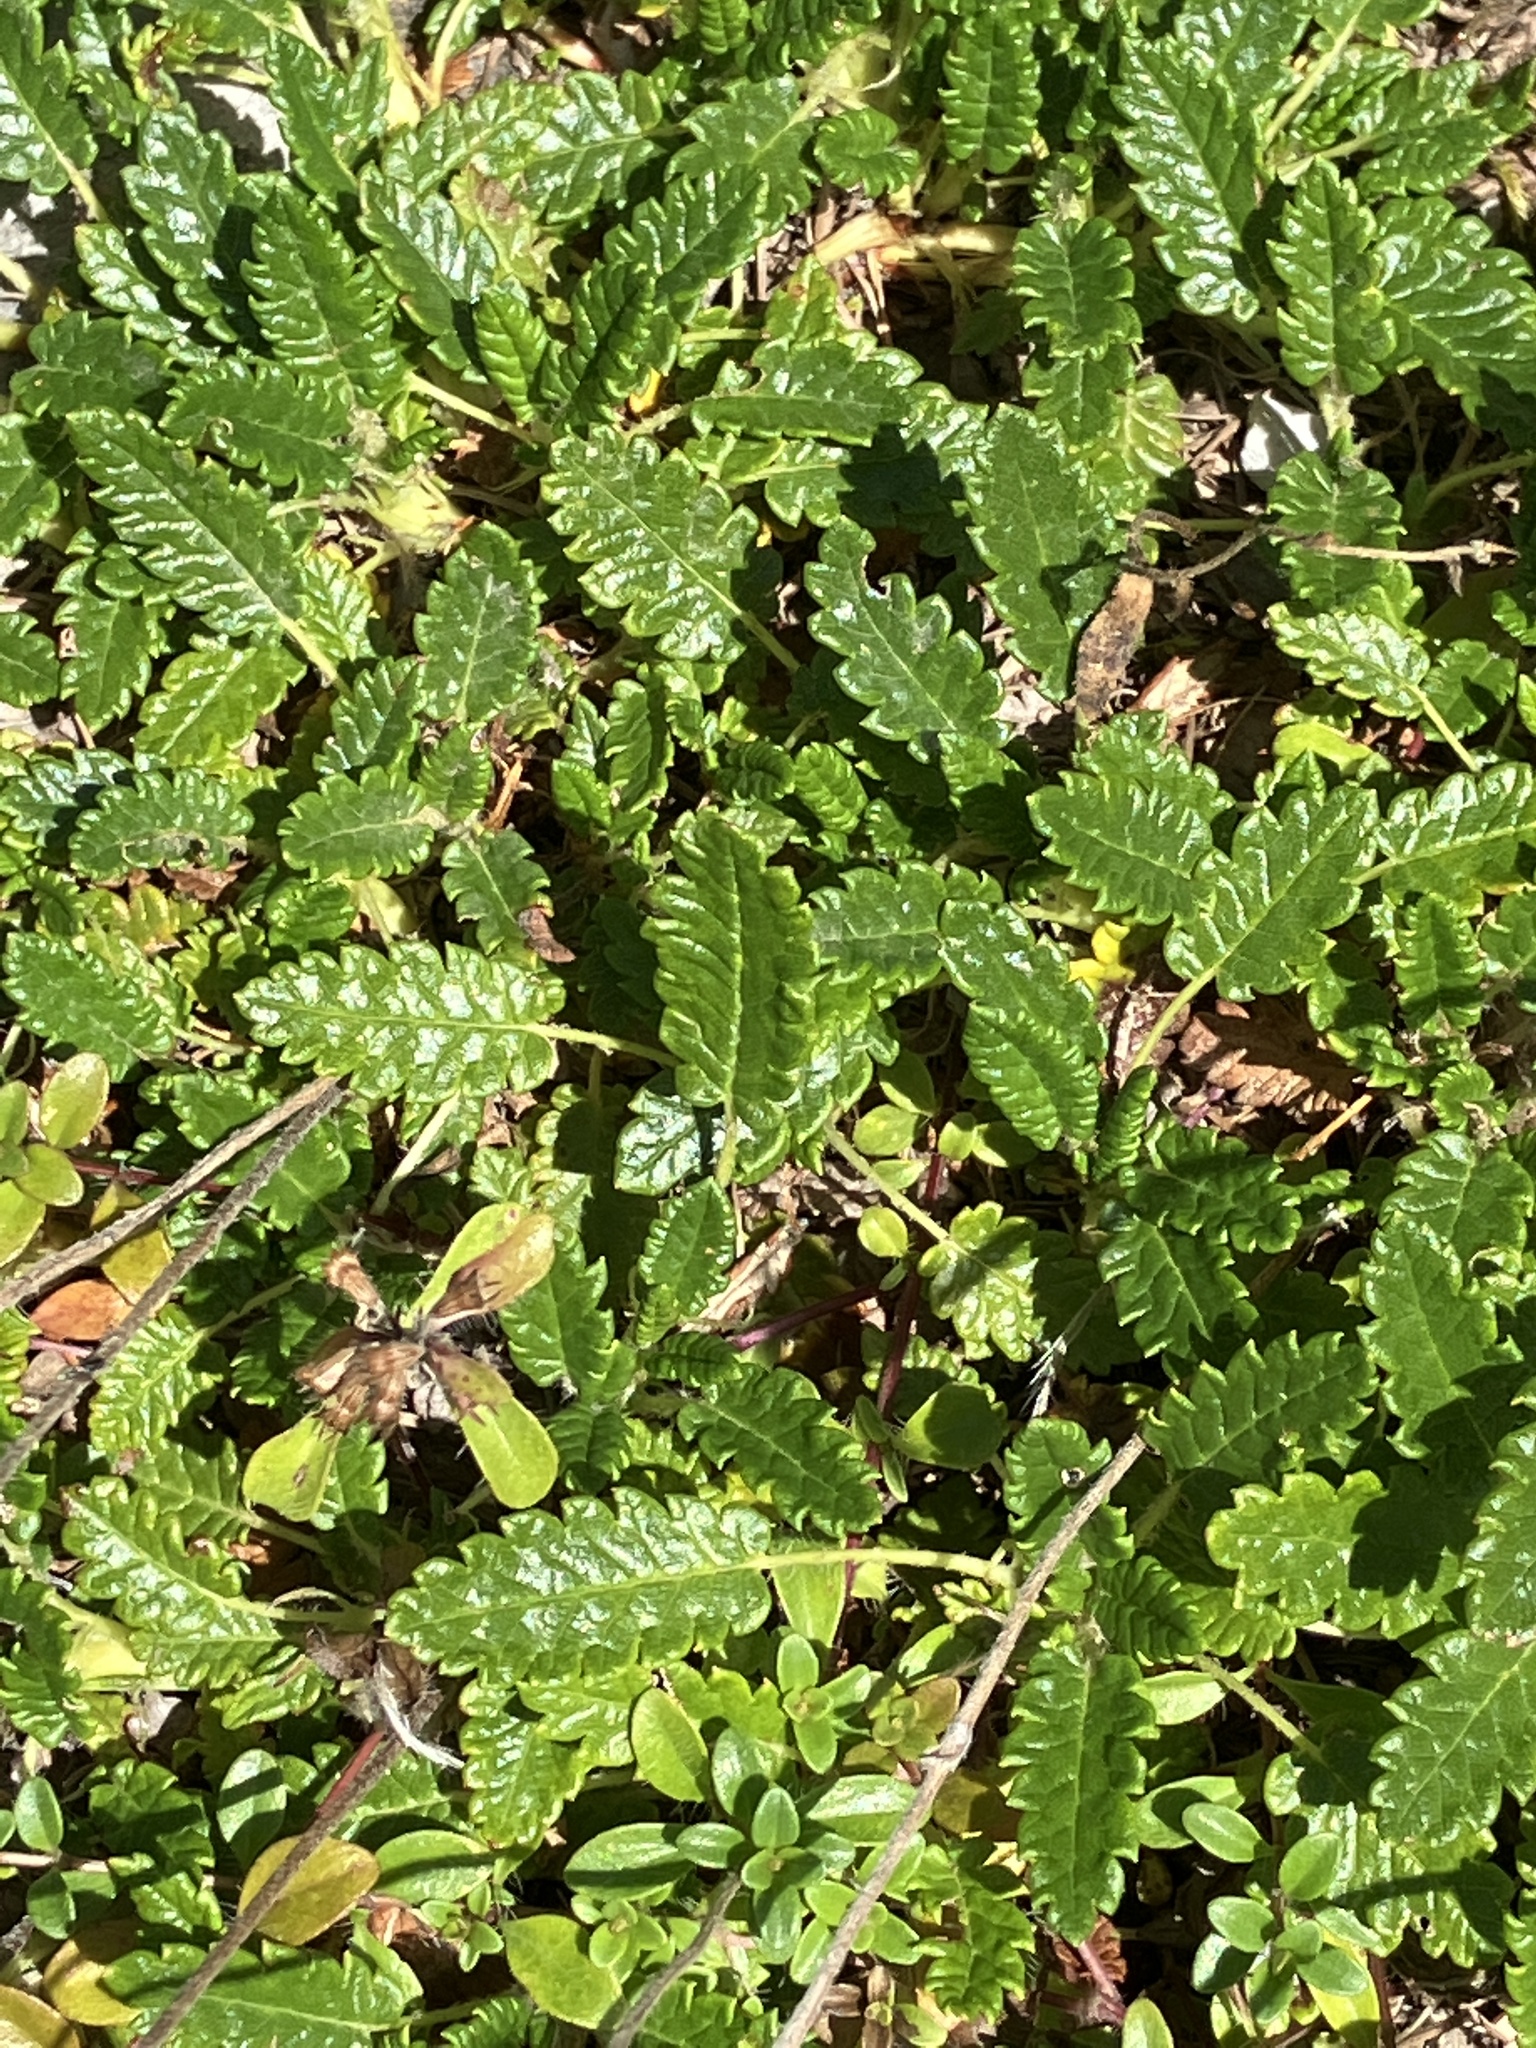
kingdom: Plantae
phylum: Tracheophyta
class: Magnoliopsida
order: Rosales
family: Rosaceae
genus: Dryas
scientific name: Dryas octopetala
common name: Eight-petal mountain-avens
